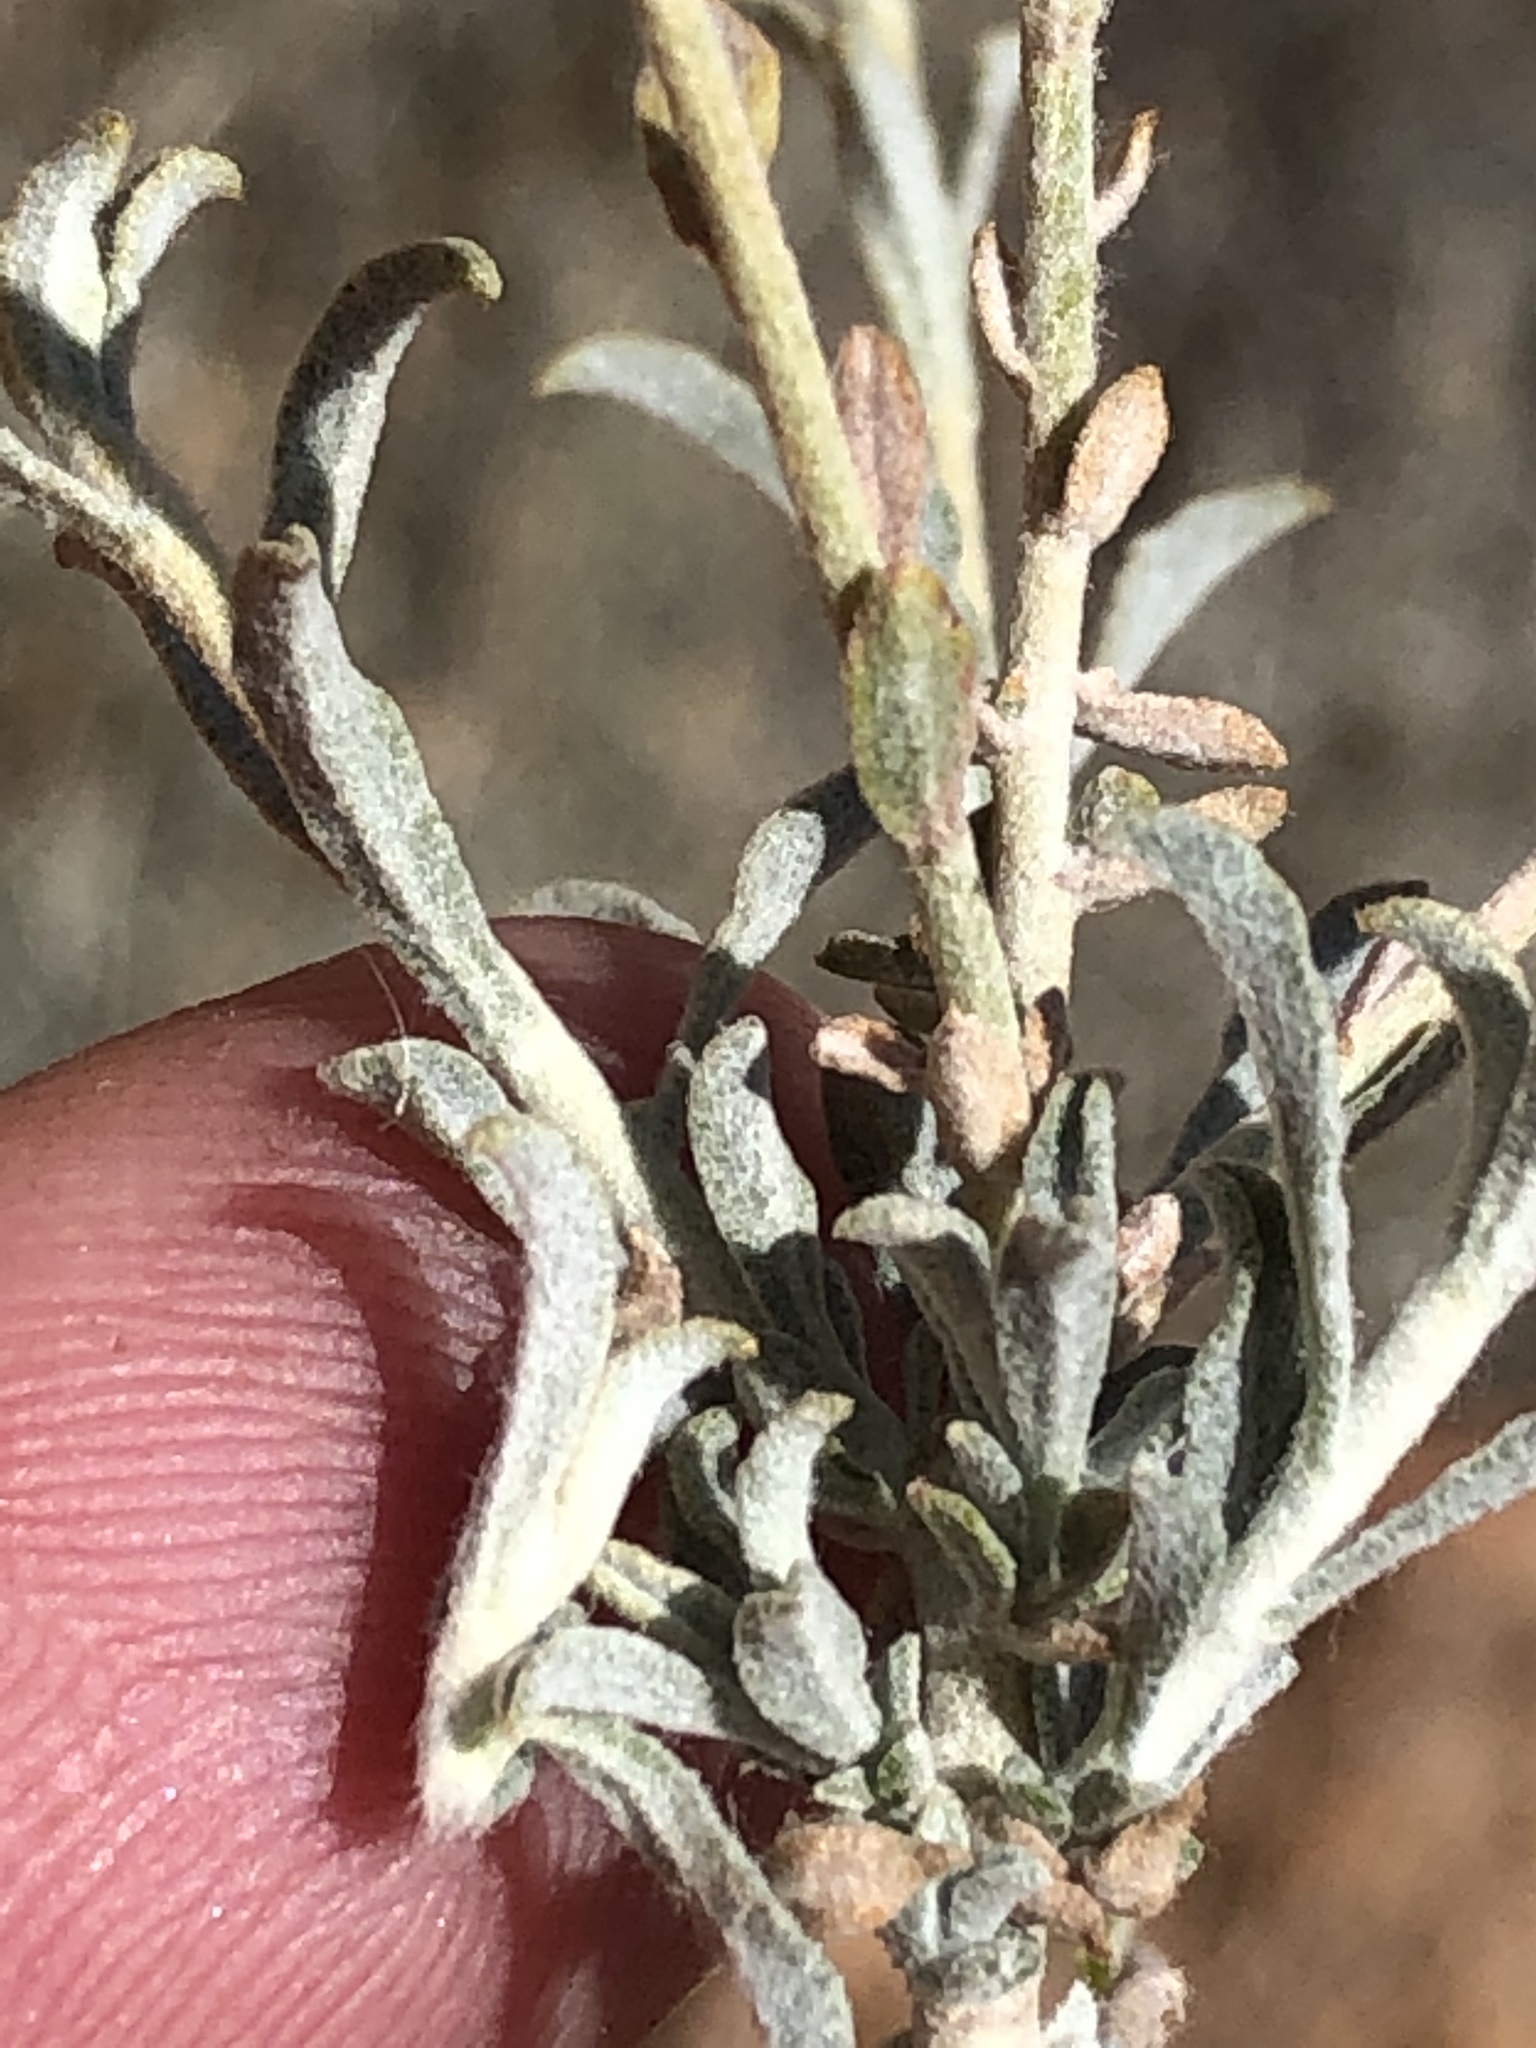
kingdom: Plantae
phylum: Tracheophyta
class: Magnoliopsida
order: Asterales
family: Asteraceae
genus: Helichrysum
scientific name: Helichrysum tomentosulum
